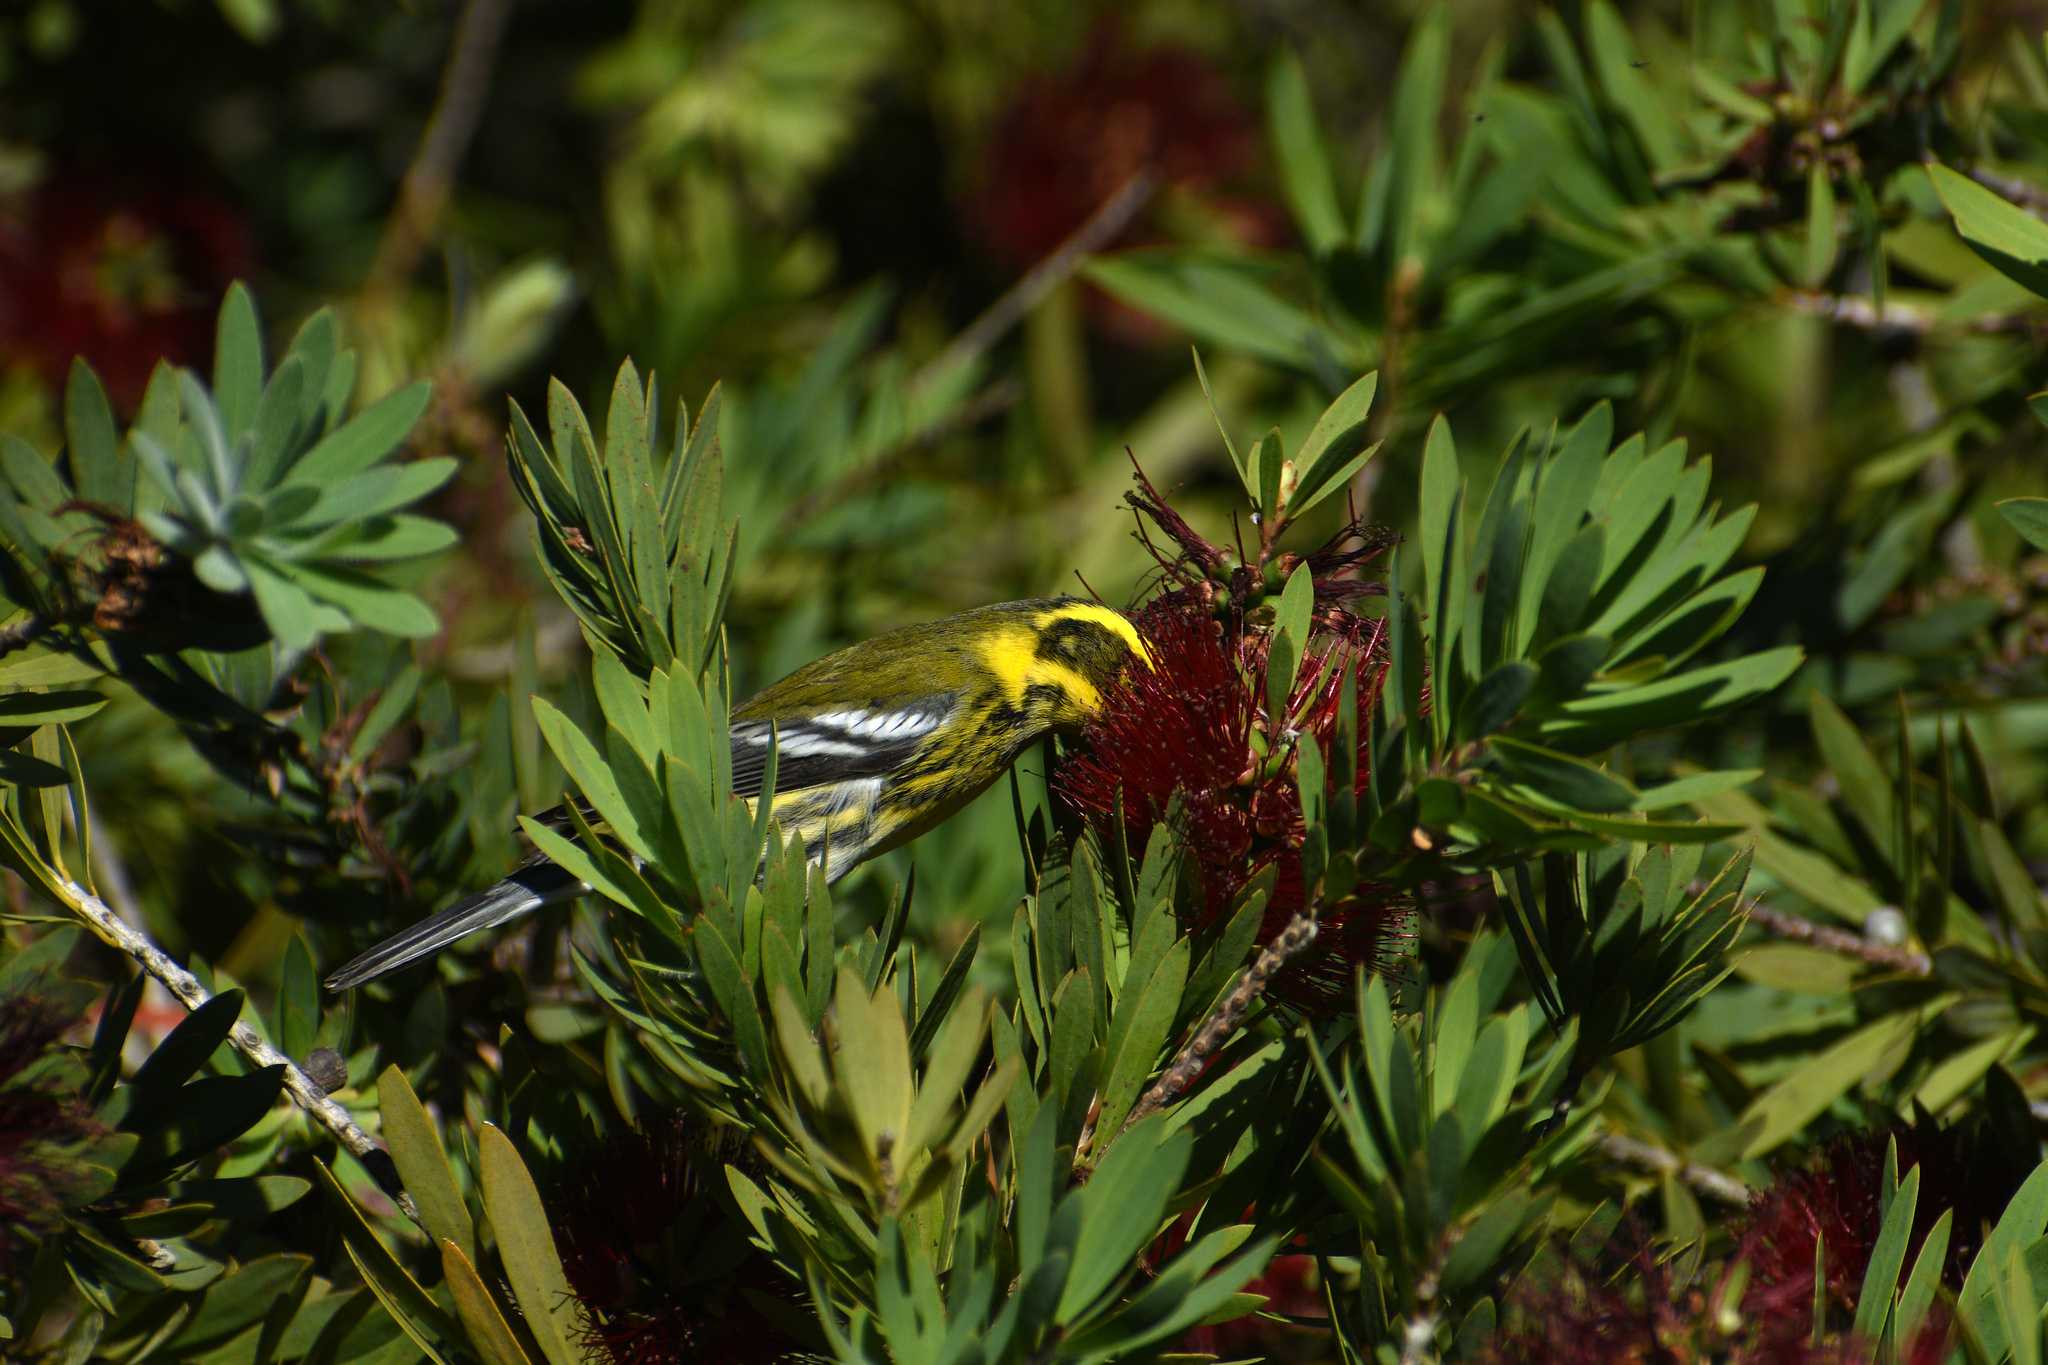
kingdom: Animalia
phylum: Chordata
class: Aves
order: Passeriformes
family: Parulidae
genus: Setophaga
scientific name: Setophaga townsendi
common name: Townsend's warbler
